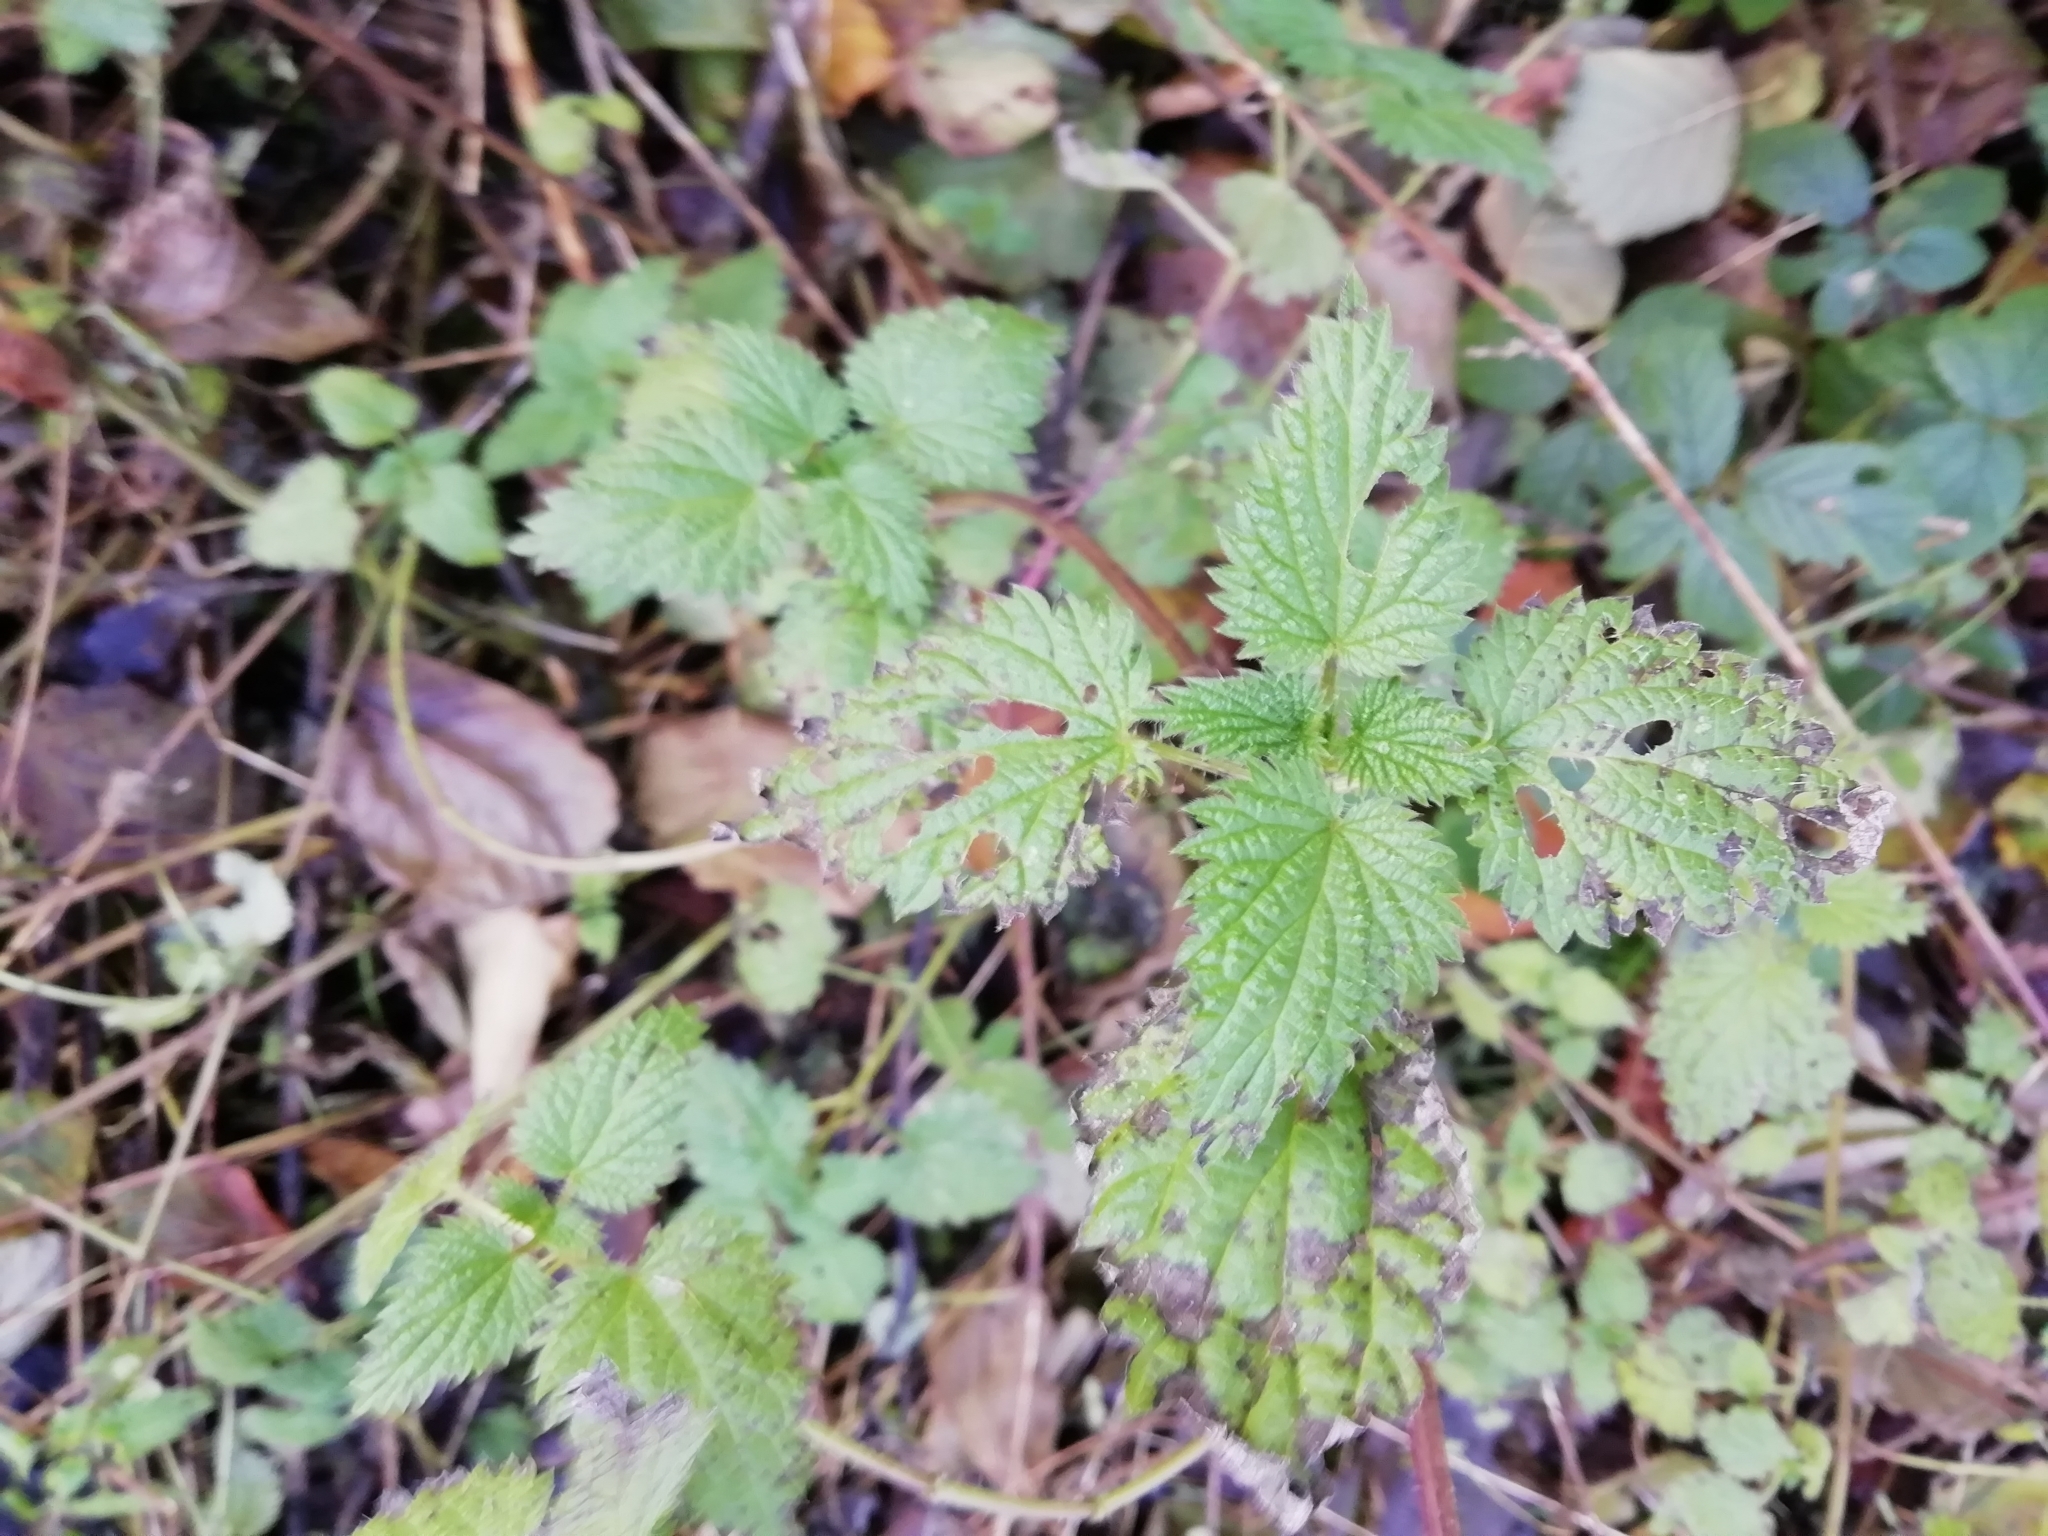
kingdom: Plantae
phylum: Tracheophyta
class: Magnoliopsida
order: Rosales
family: Urticaceae
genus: Urtica
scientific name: Urtica dioica
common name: Common nettle
